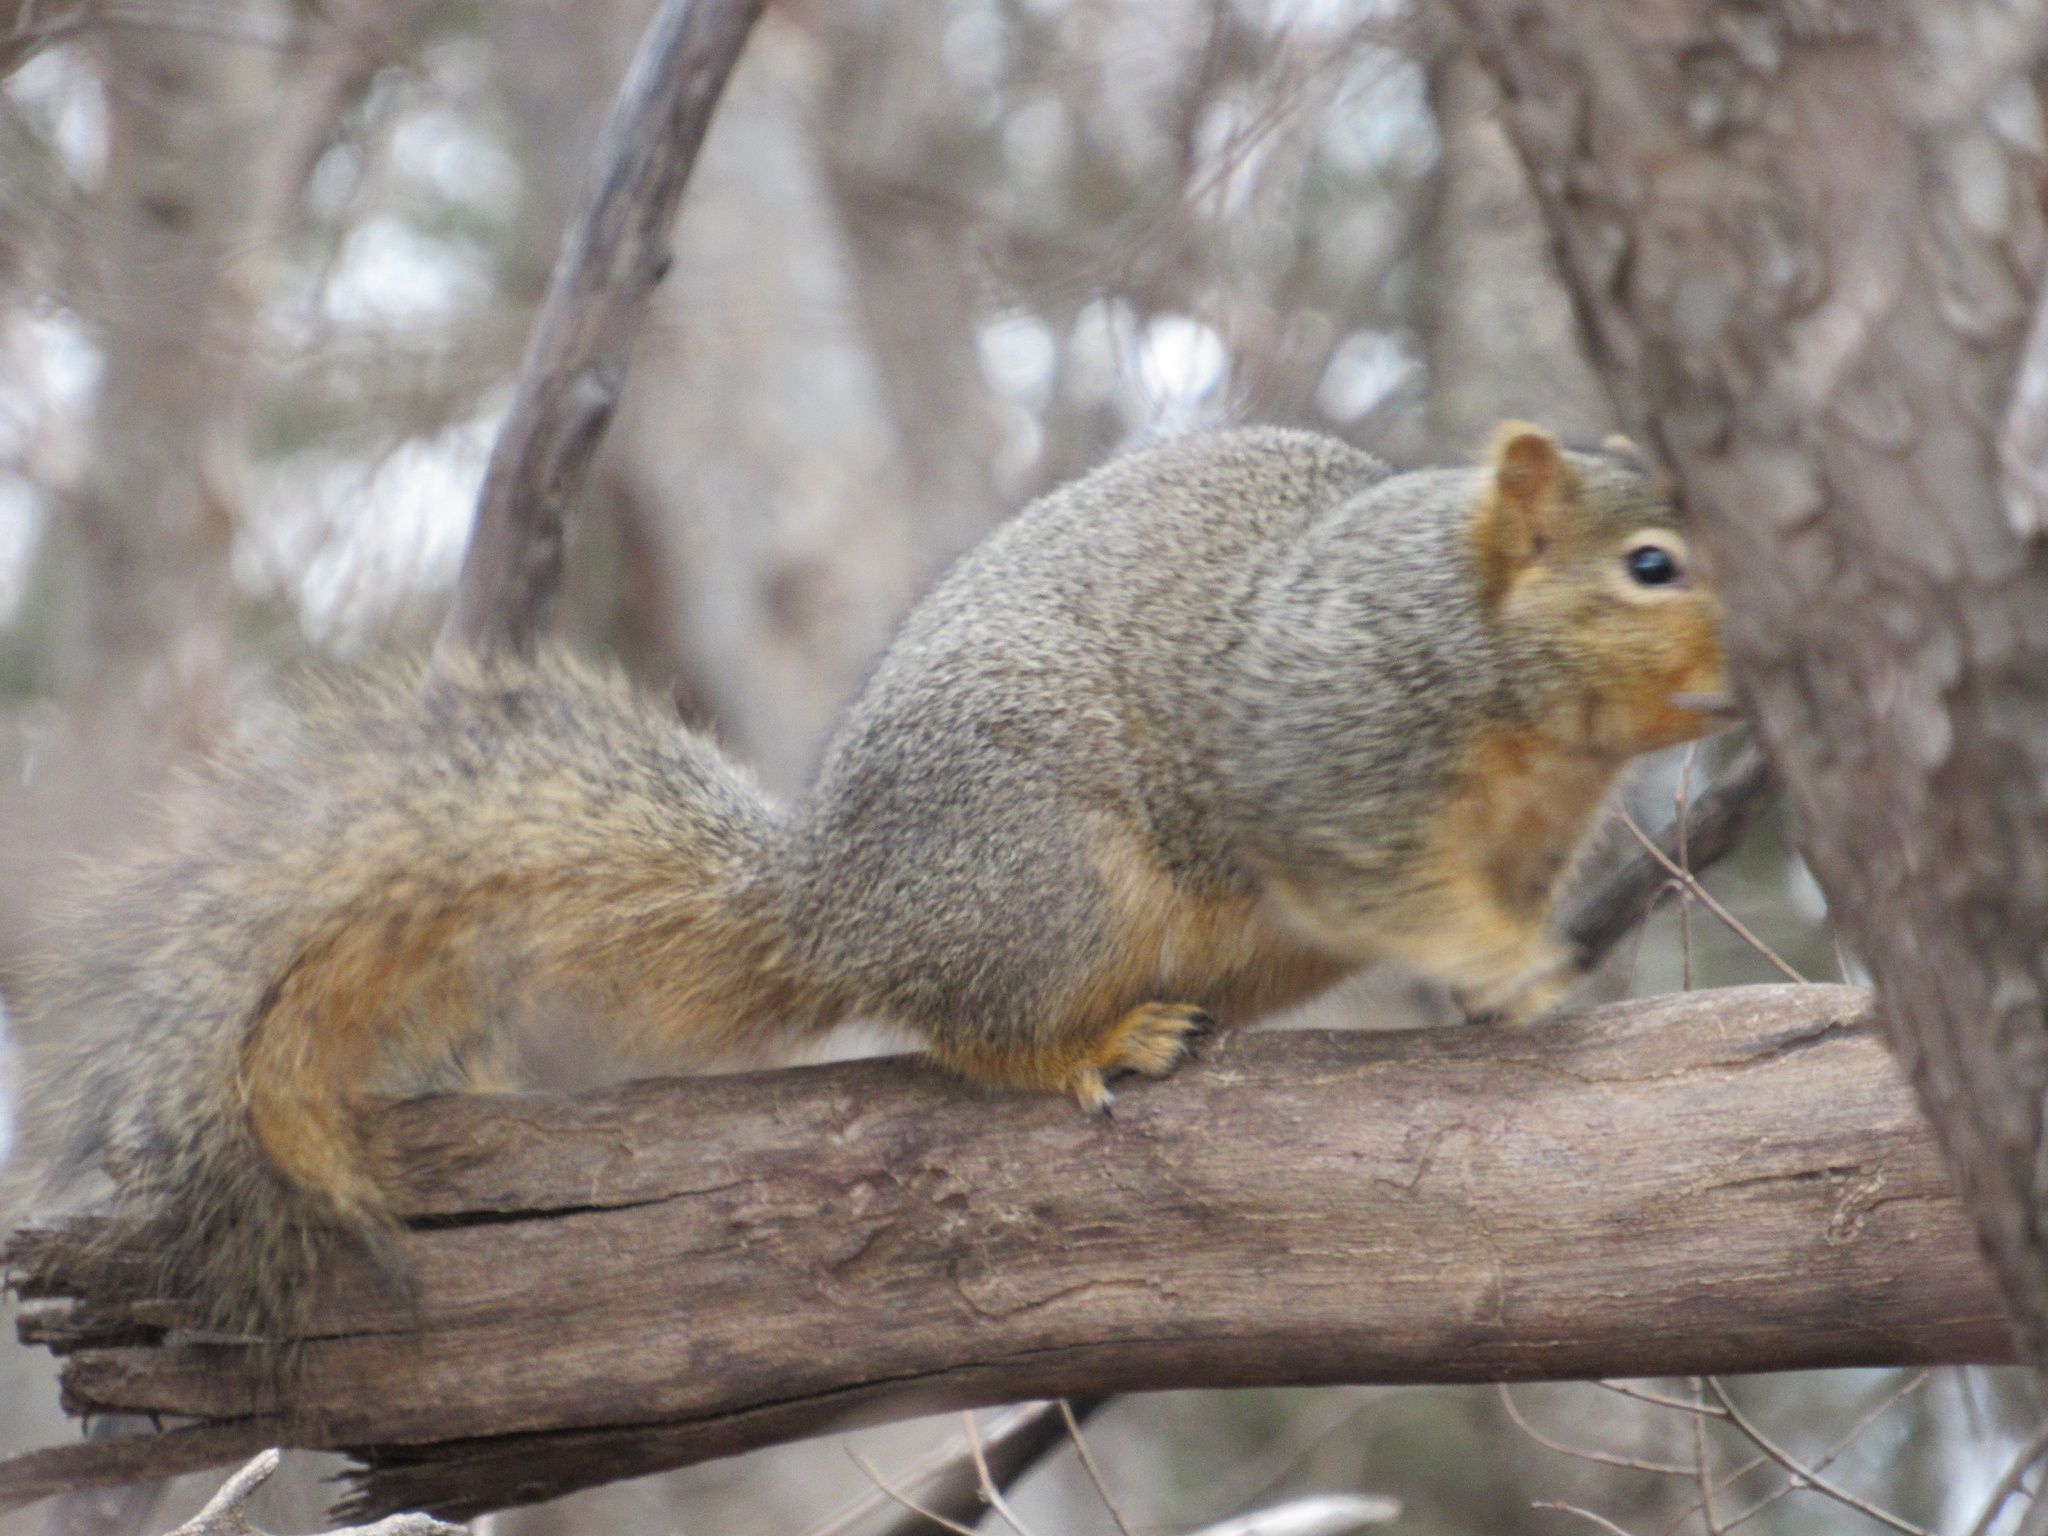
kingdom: Animalia
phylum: Chordata
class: Mammalia
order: Rodentia
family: Sciuridae
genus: Sciurus
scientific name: Sciurus niger
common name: Fox squirrel
